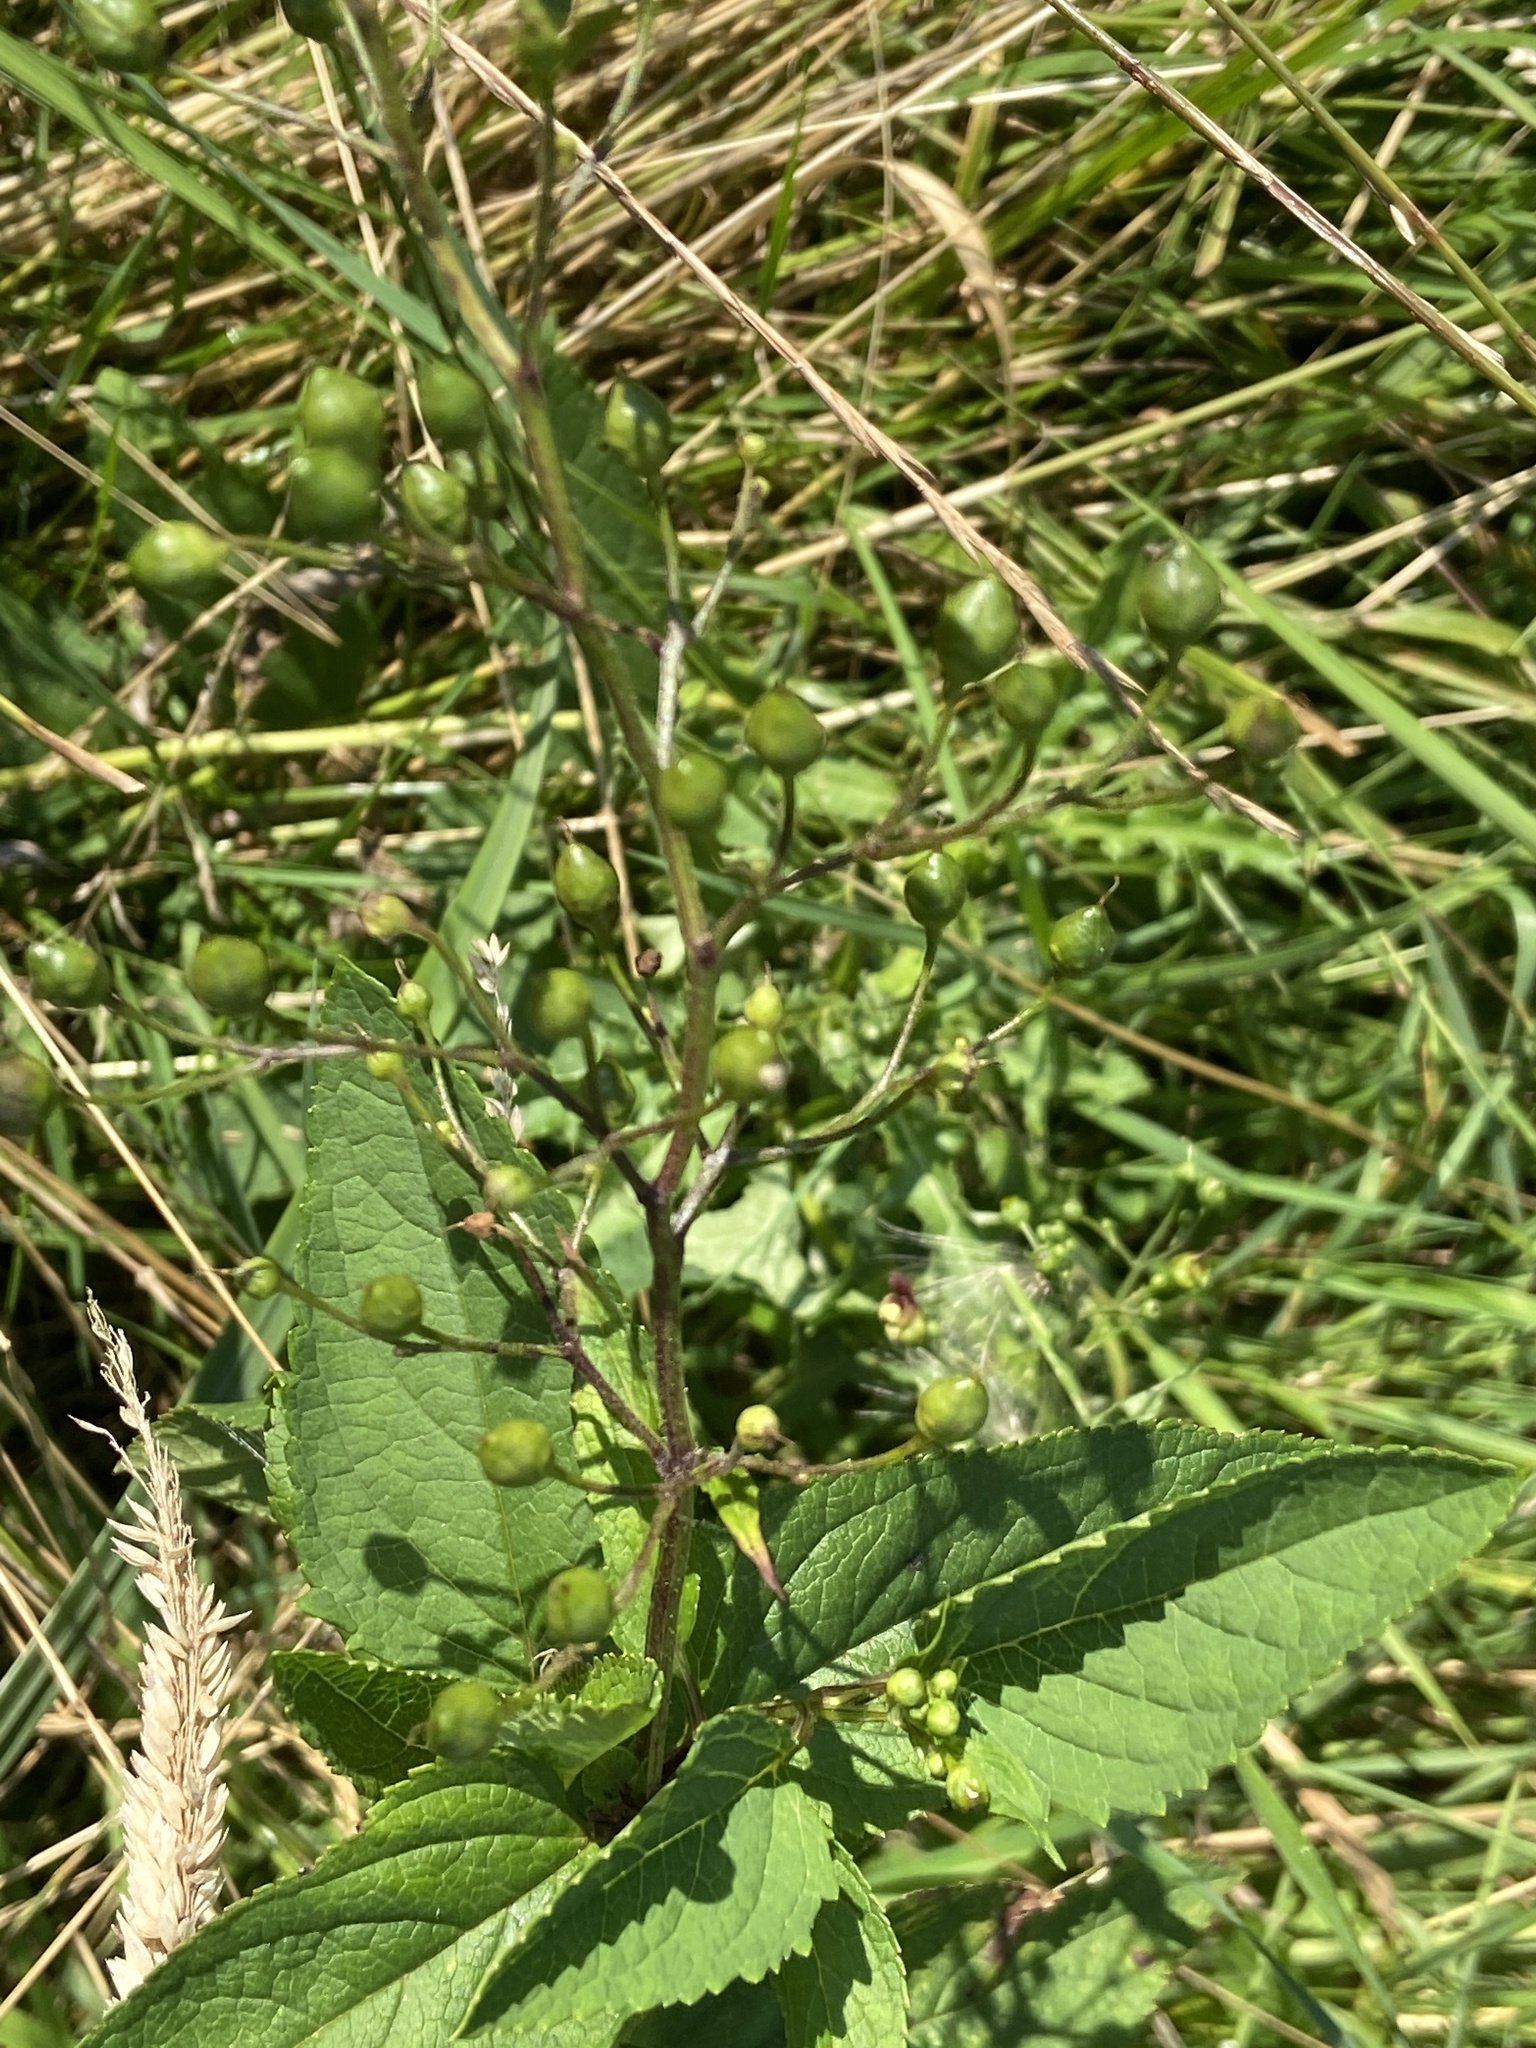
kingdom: Plantae
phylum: Tracheophyta
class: Magnoliopsida
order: Lamiales
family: Scrophulariaceae
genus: Scrophularia
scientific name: Scrophularia nodosa
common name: Common figwort
